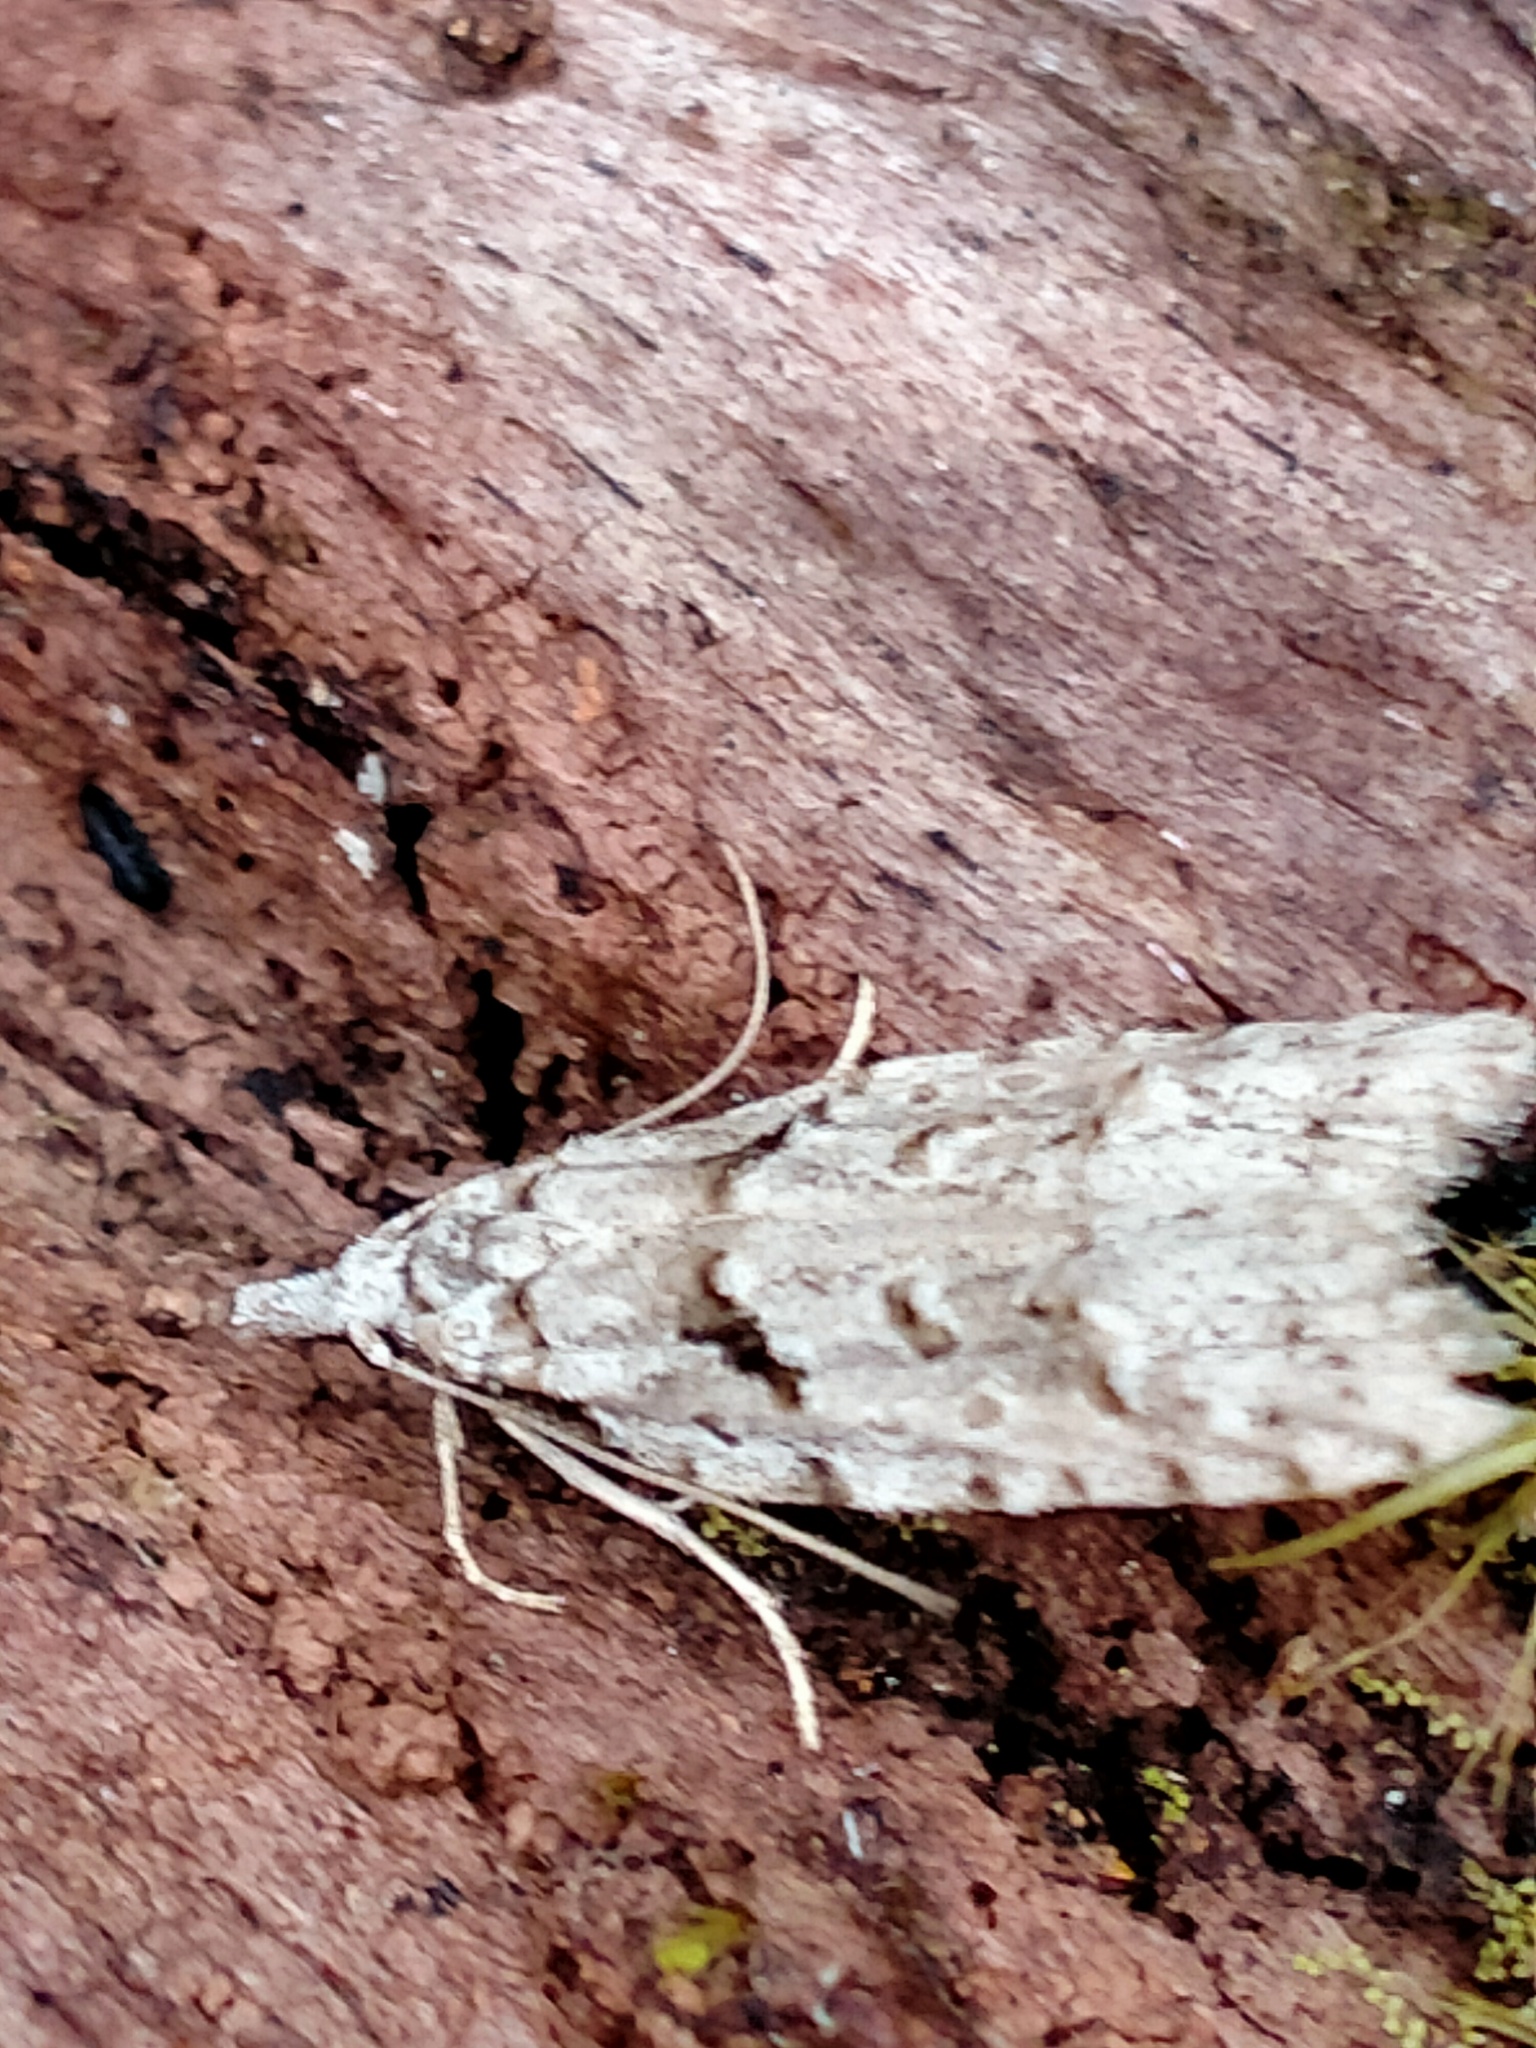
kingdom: Animalia
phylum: Arthropoda
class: Insecta
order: Lepidoptera
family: Carposinidae
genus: Carposina
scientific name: Carposina Heterocrossa philpotti
